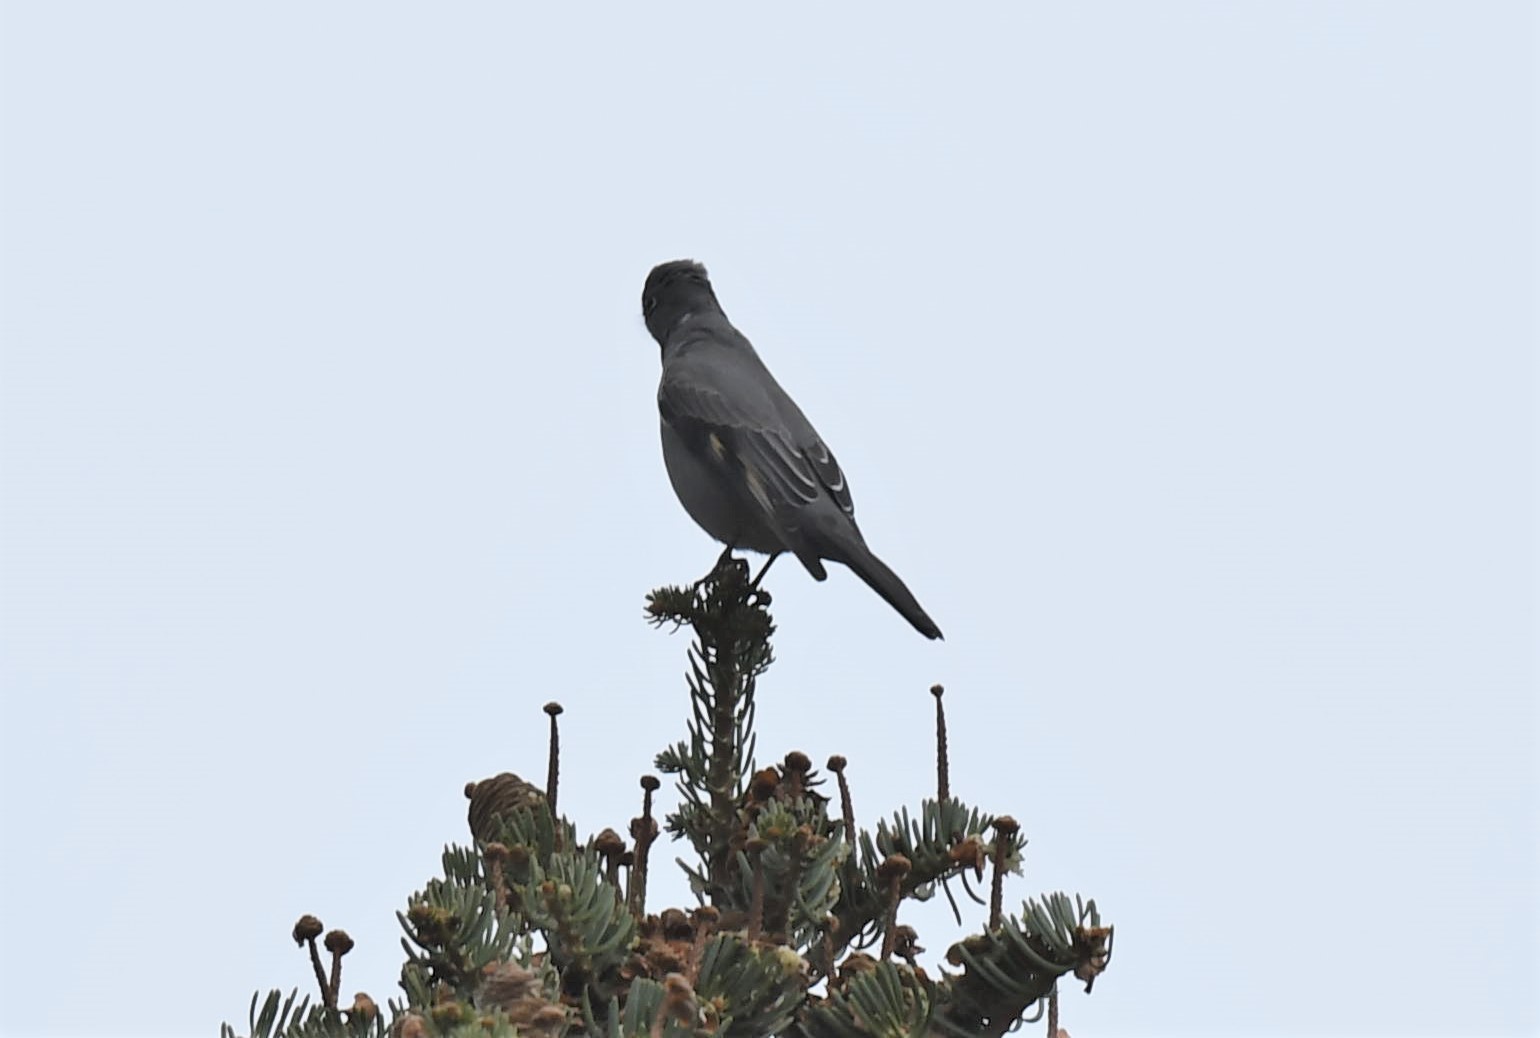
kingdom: Animalia
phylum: Chordata
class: Aves
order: Passeriformes
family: Turdidae
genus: Myadestes
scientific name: Myadestes townsendi
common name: Townsend's solitaire
